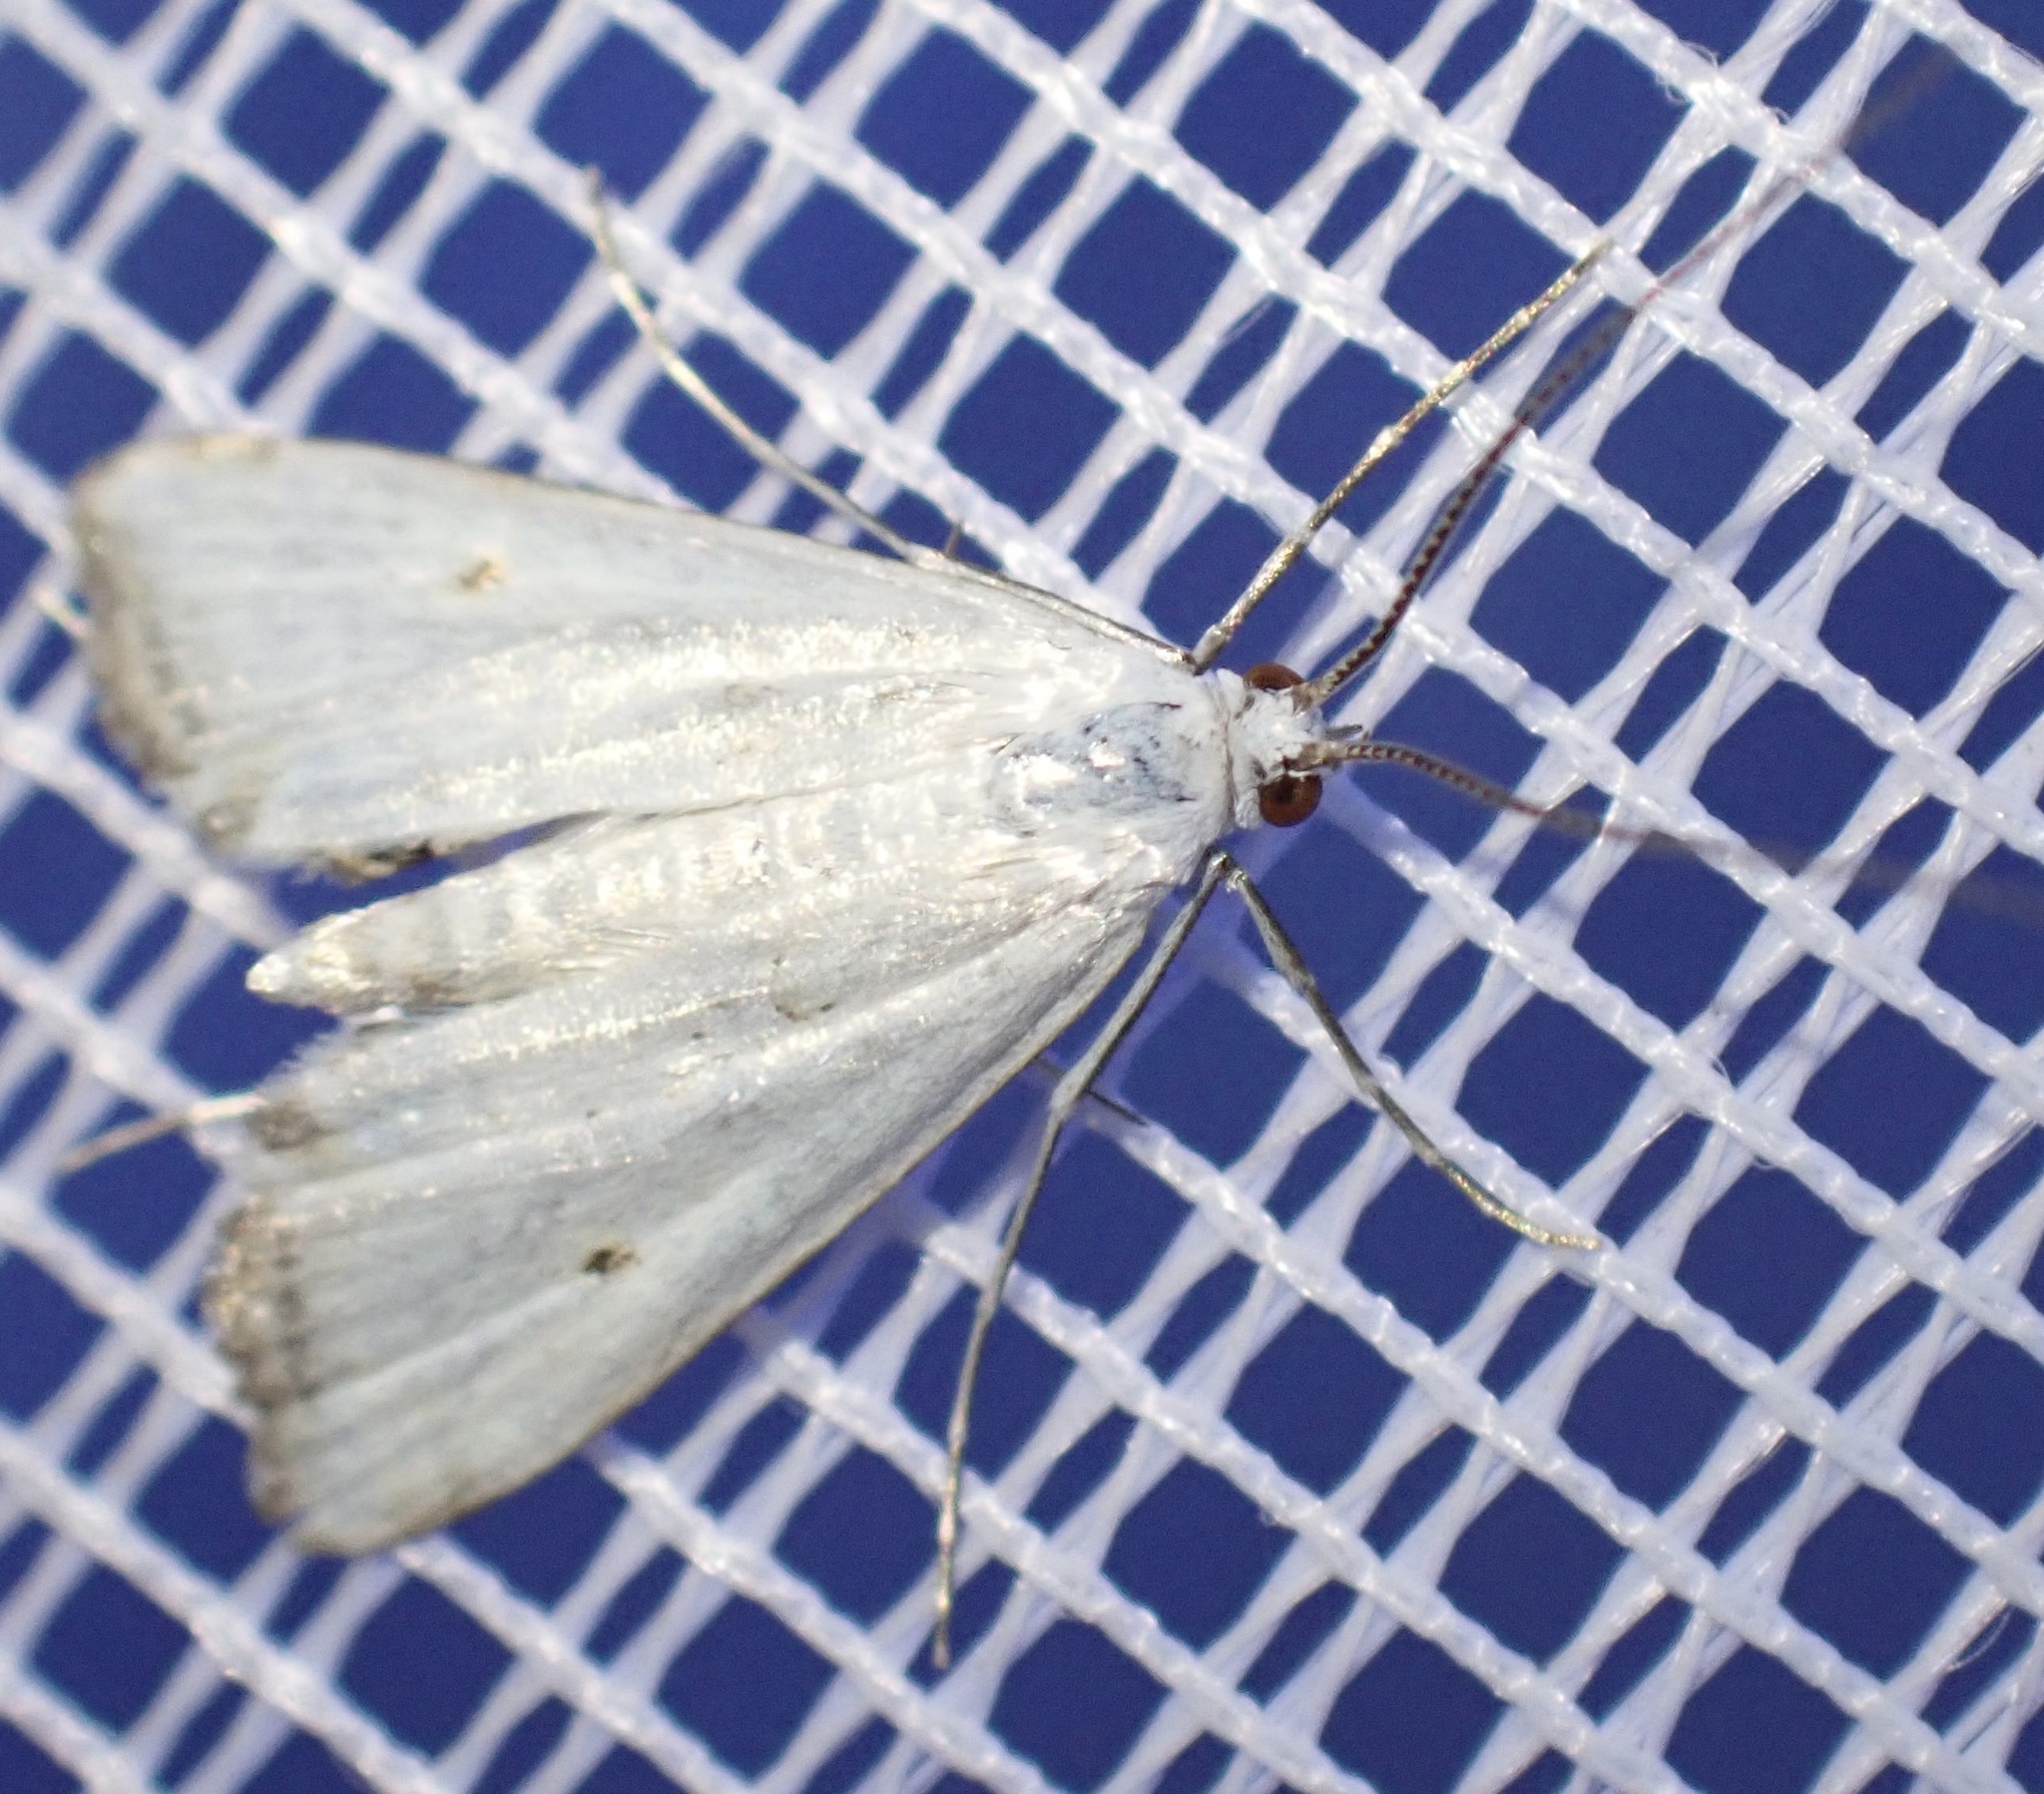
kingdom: Animalia
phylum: Arthropoda
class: Insecta
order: Lepidoptera
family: Crambidae
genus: Cataclysta
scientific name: Cataclysta lemnata
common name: Small china-mark
